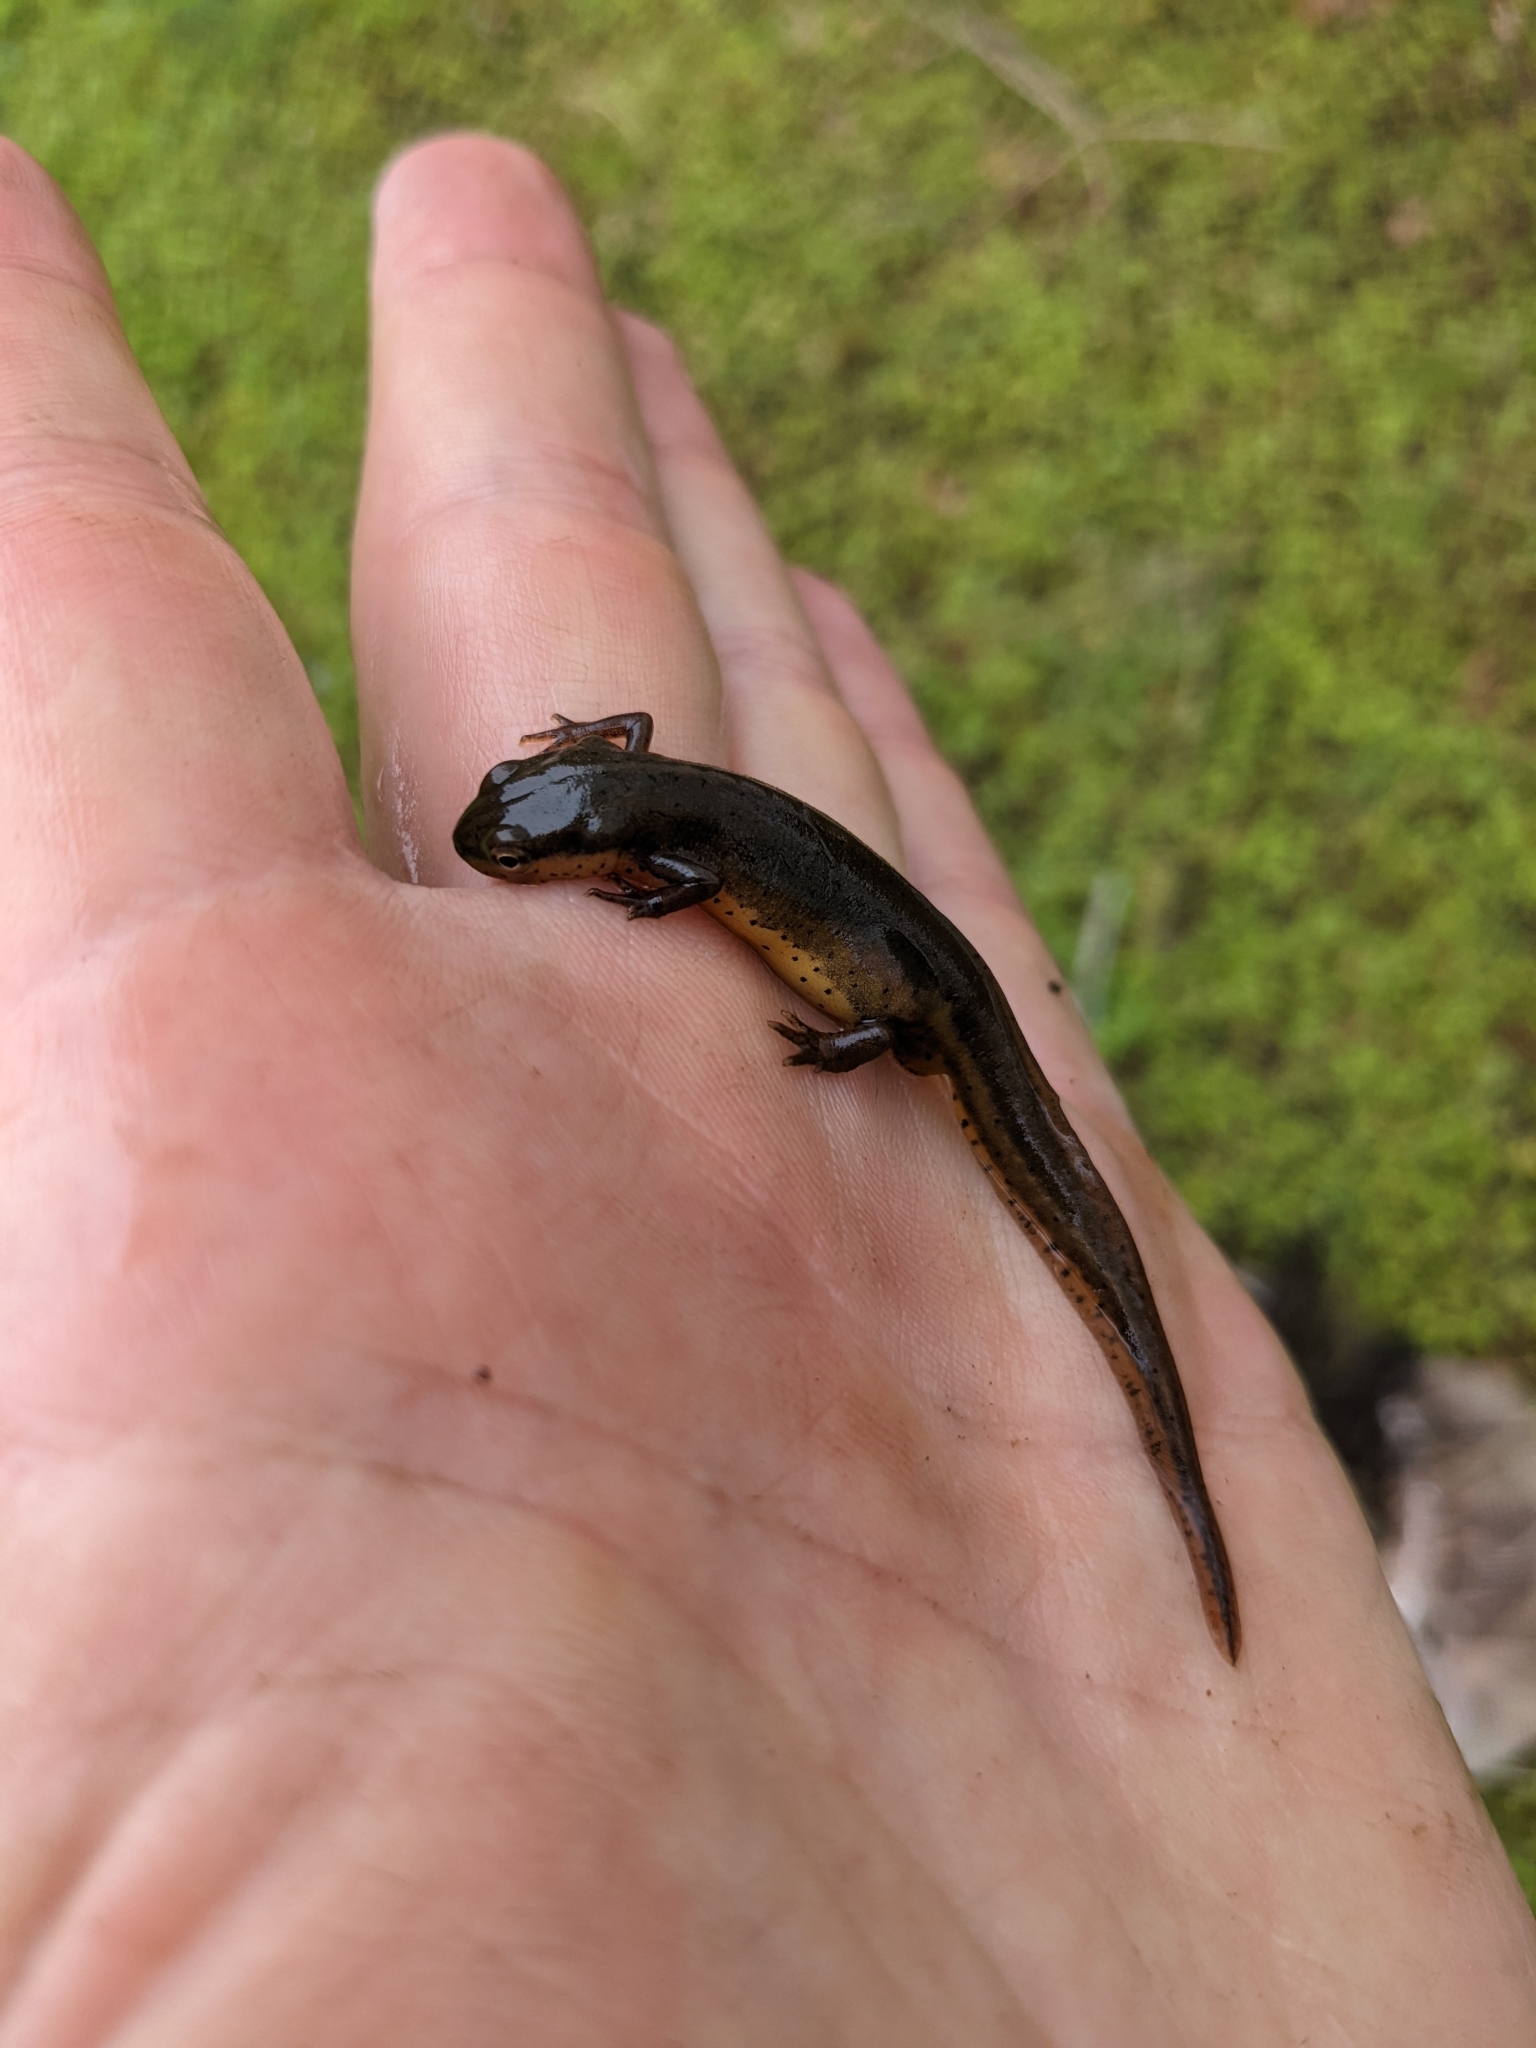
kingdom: Animalia
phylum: Chordata
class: Amphibia
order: Caudata
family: Salamandridae
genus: Notophthalmus
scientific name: Notophthalmus viridescens
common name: Eastern newt
